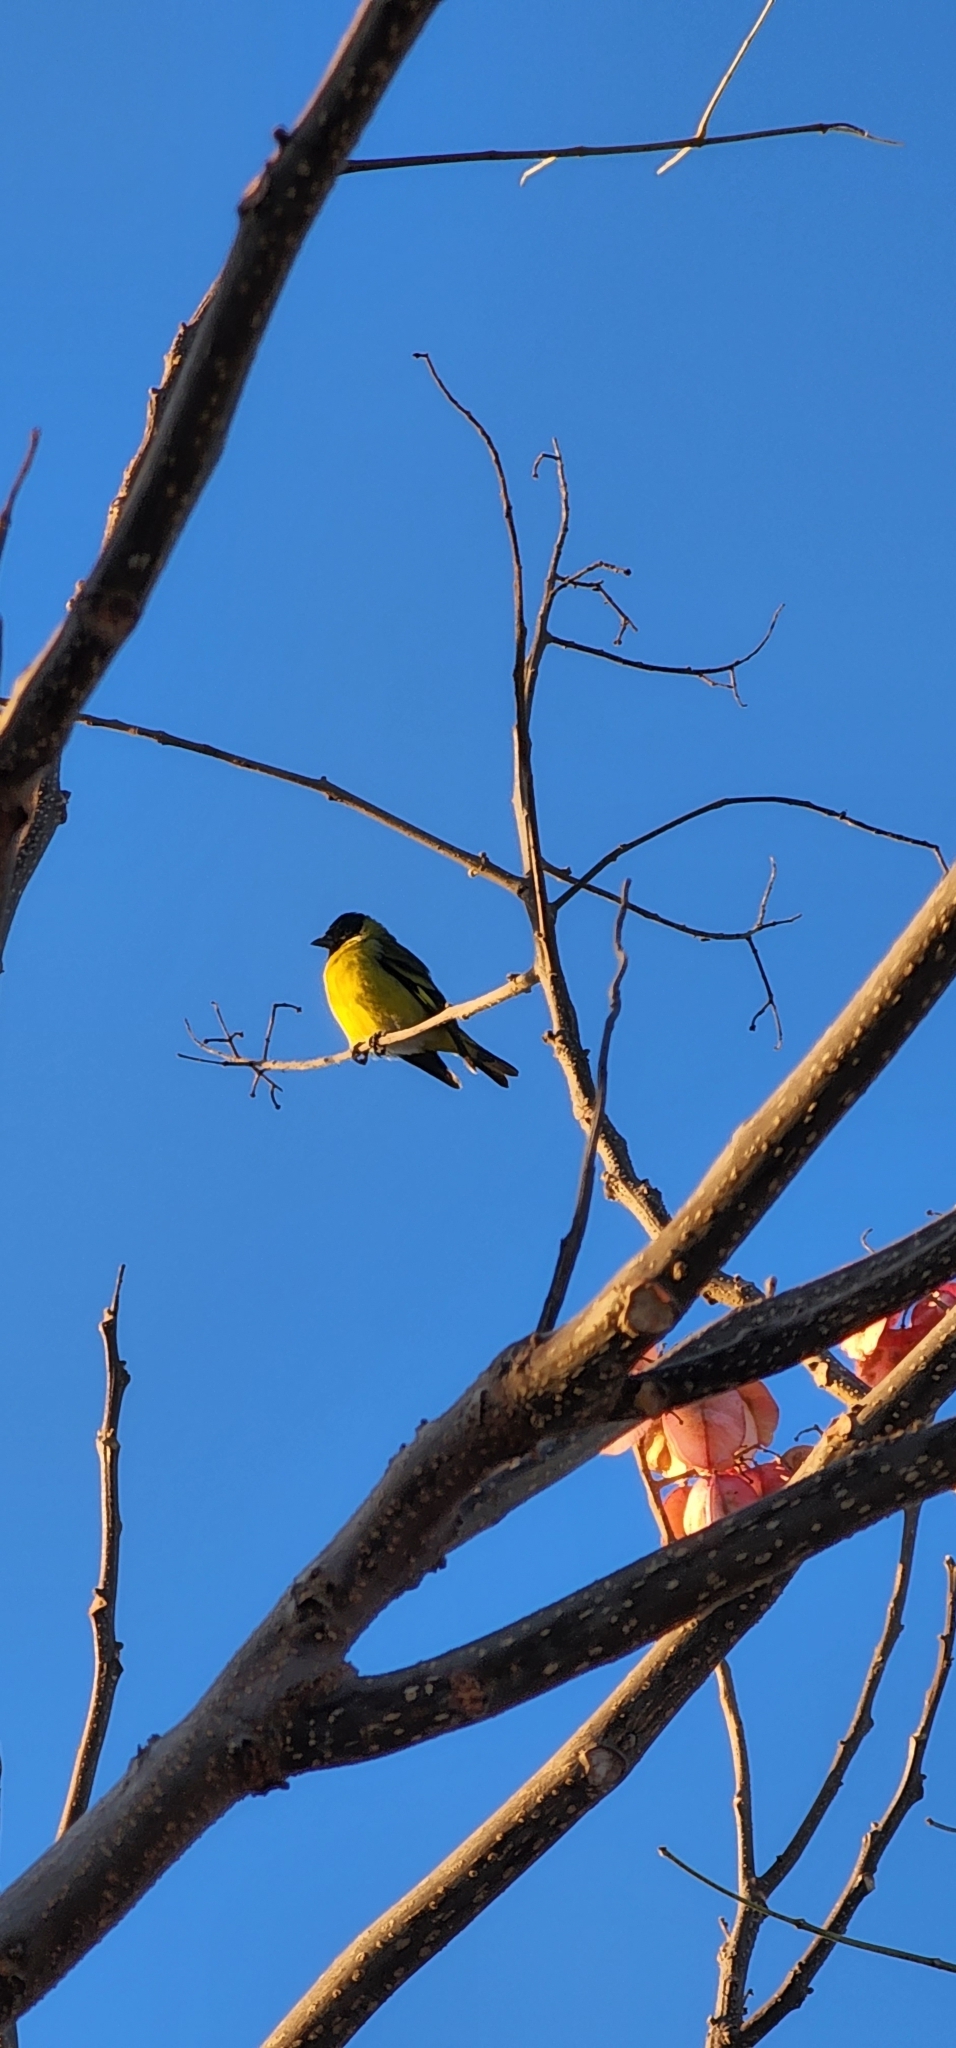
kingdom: Animalia
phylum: Chordata
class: Aves
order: Passeriformes
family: Fringillidae
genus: Spinus
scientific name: Spinus magellanicus
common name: Hooded siskin
